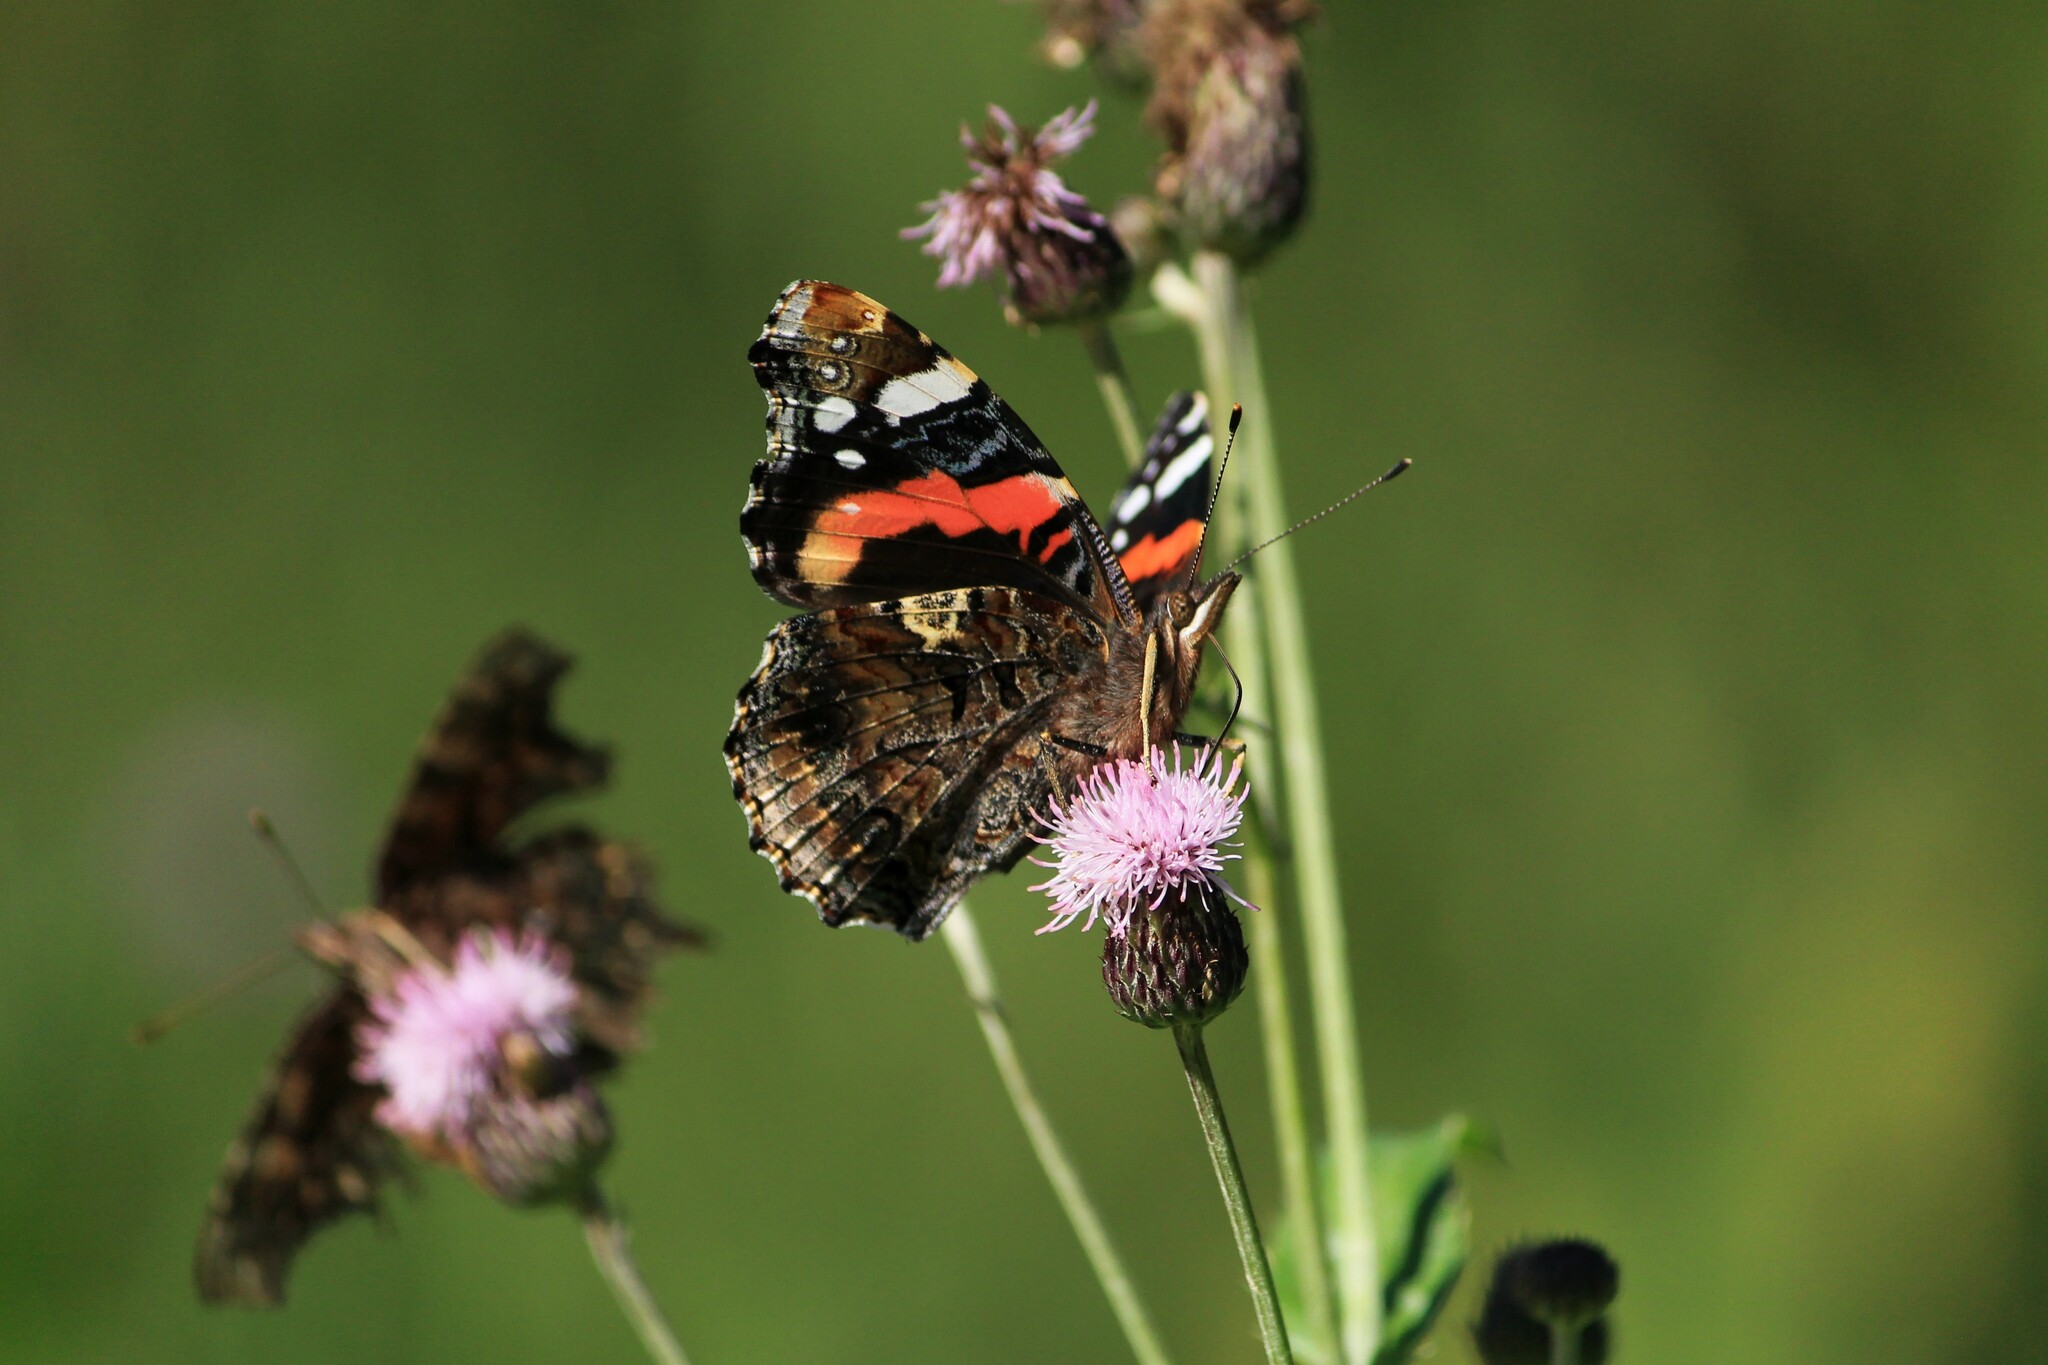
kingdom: Animalia
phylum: Arthropoda
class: Insecta
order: Lepidoptera
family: Nymphalidae
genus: Vanessa
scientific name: Vanessa atalanta
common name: Red admiral
